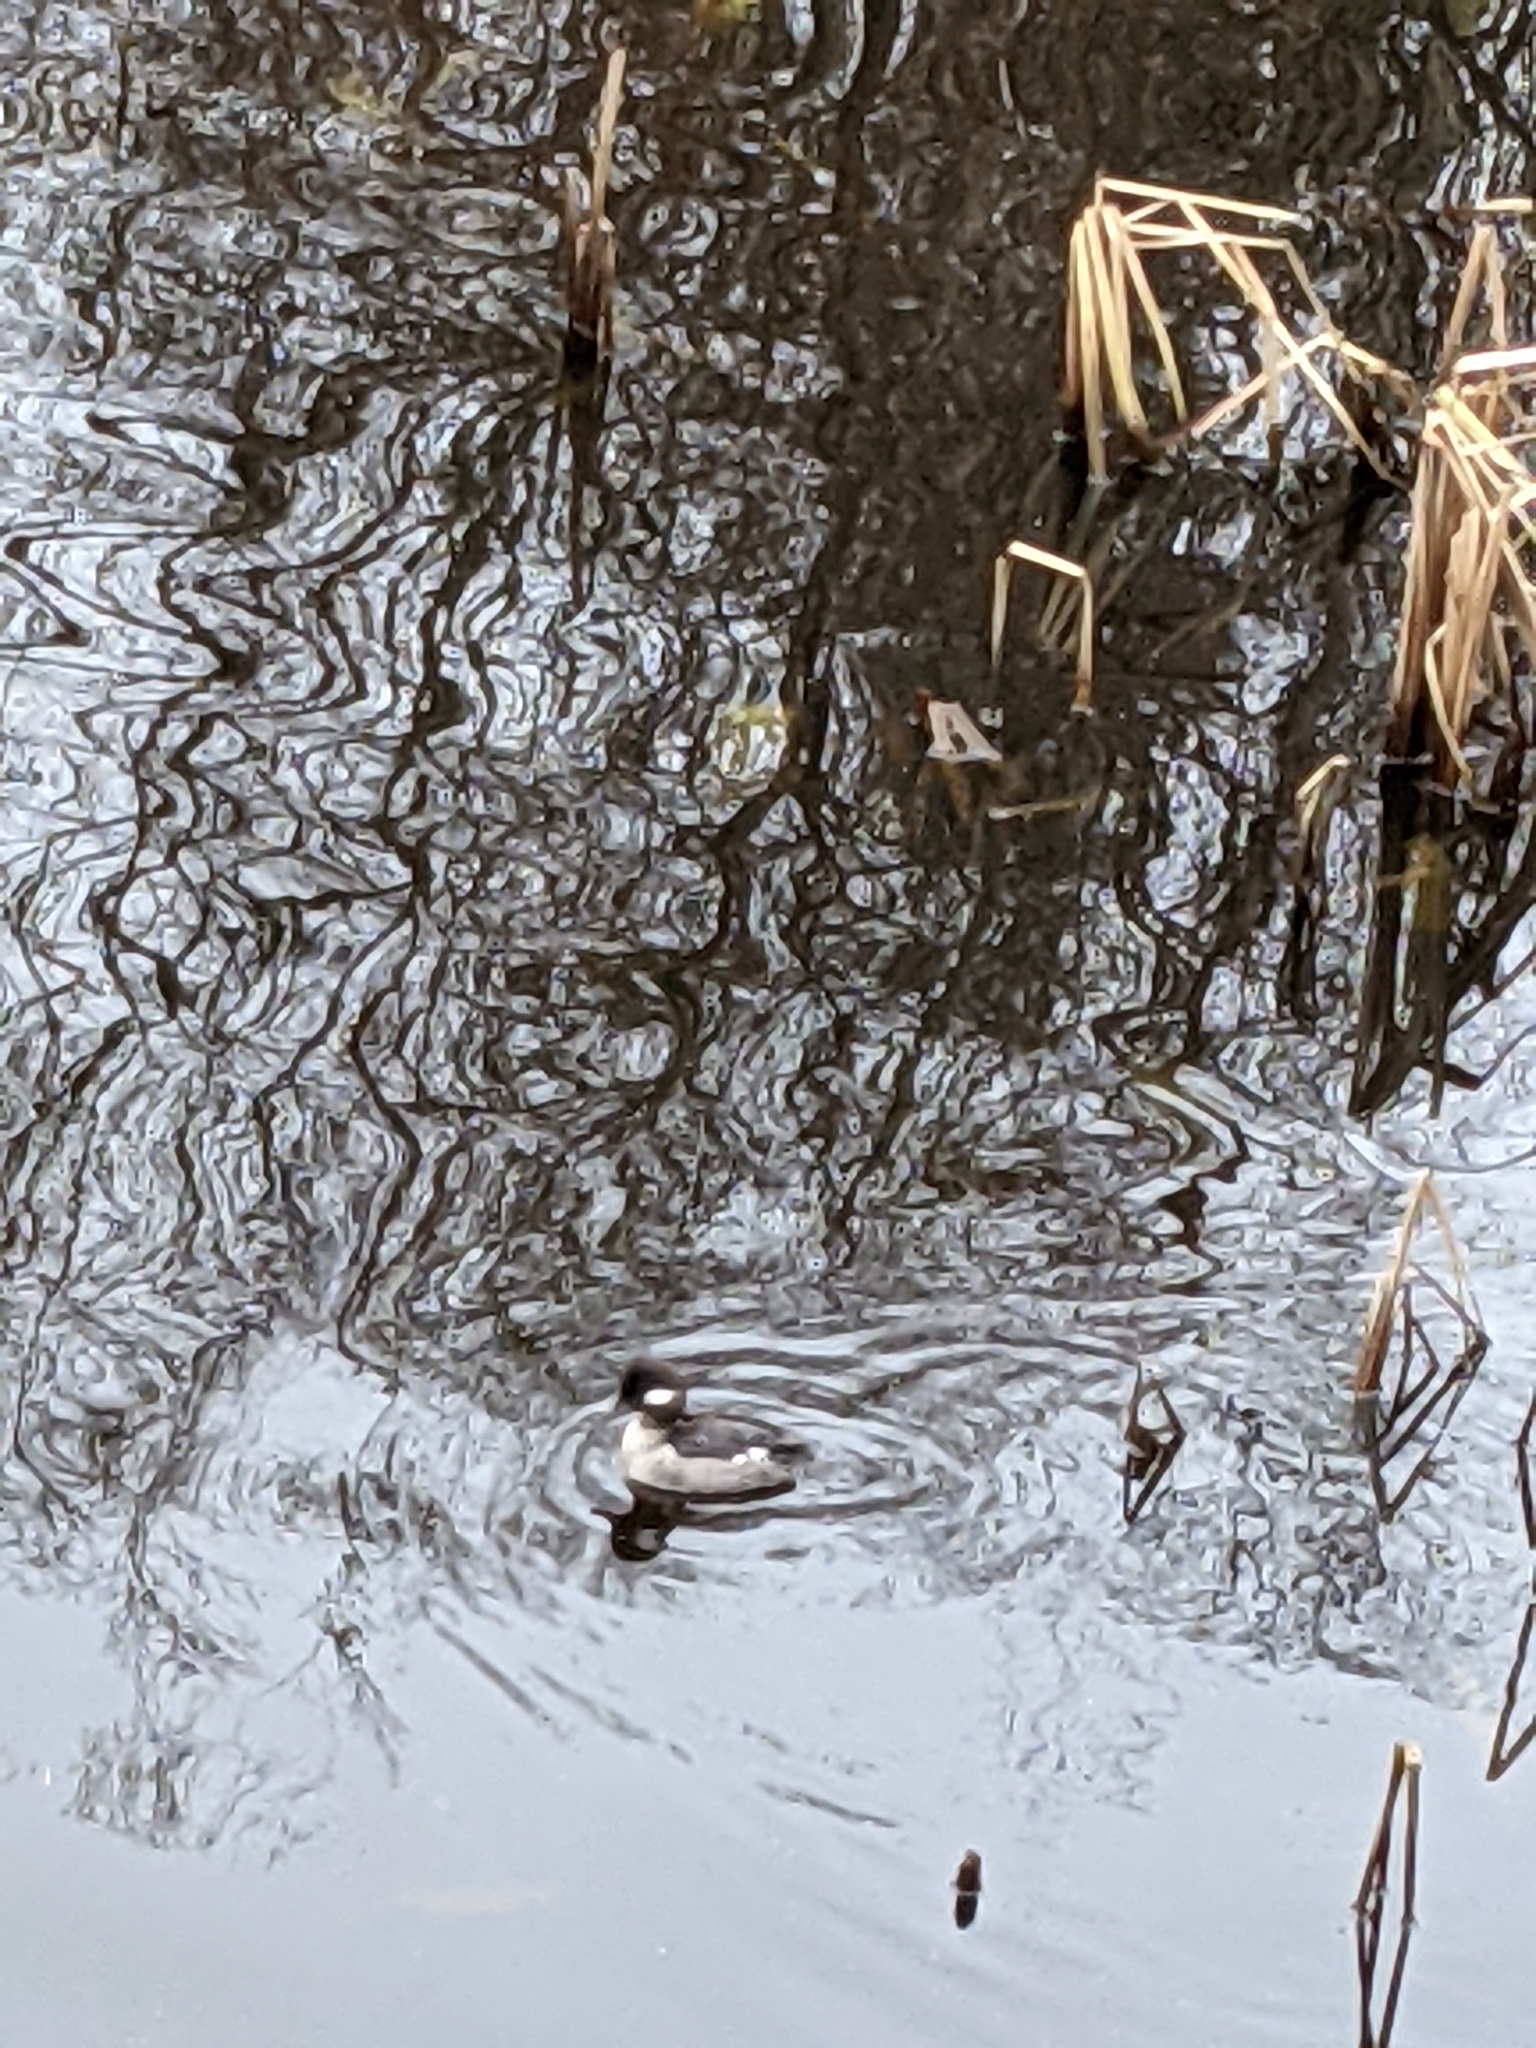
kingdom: Animalia
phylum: Chordata
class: Aves
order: Anseriformes
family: Anatidae
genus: Bucephala
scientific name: Bucephala albeola
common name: Bufflehead
